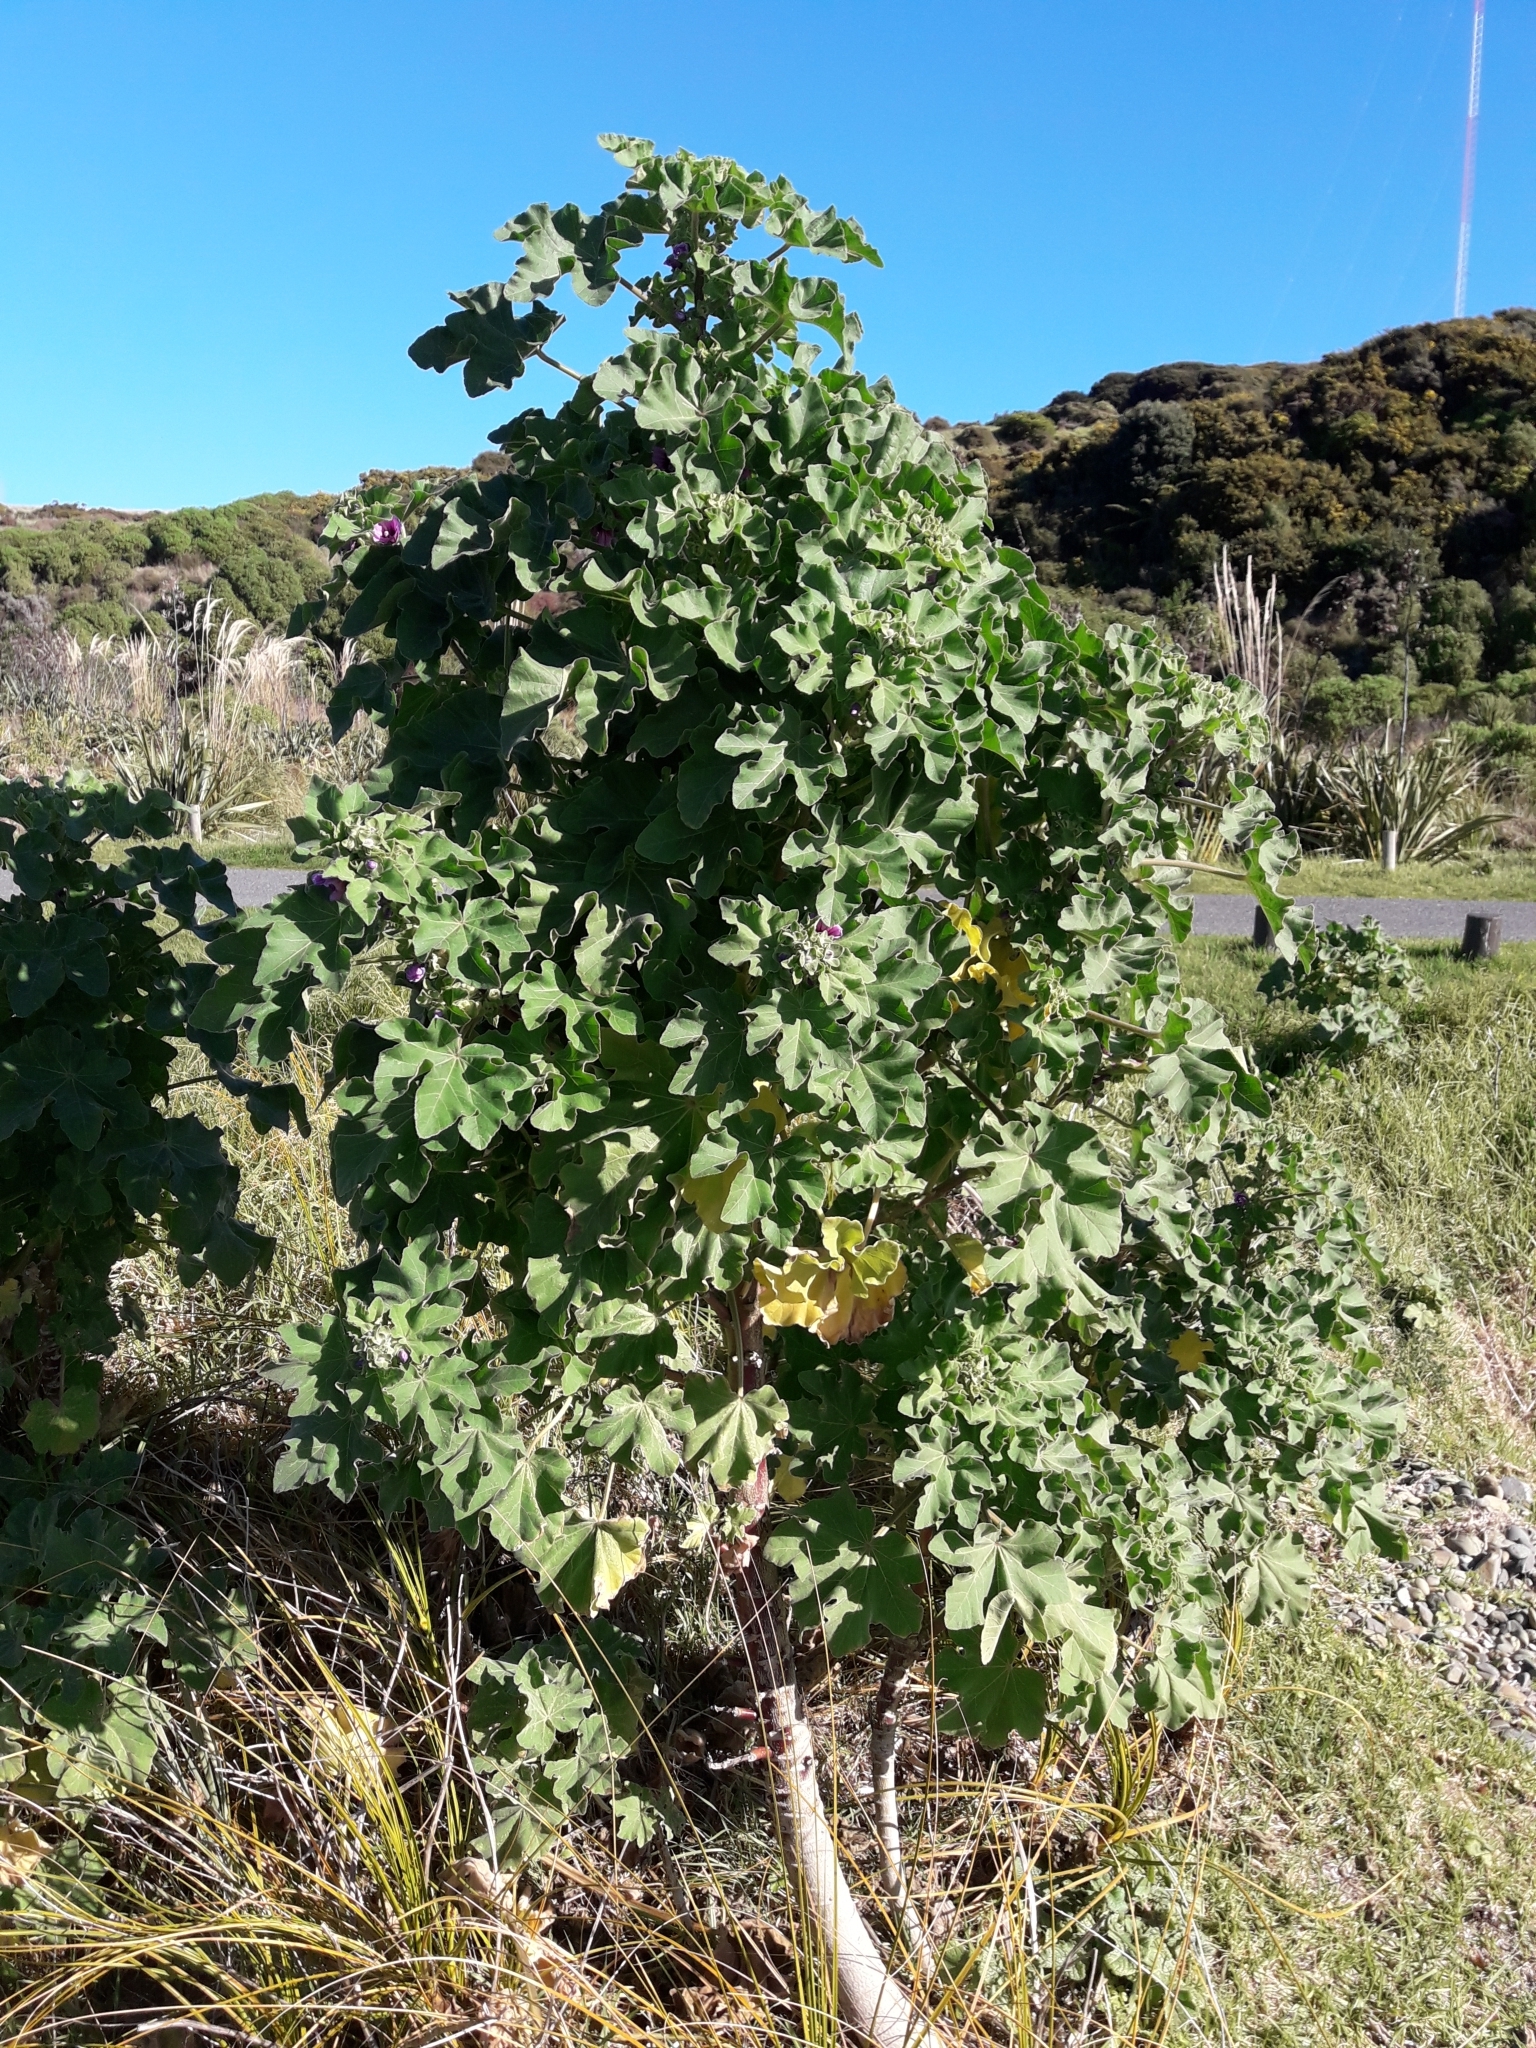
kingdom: Plantae
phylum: Tracheophyta
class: Magnoliopsida
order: Malvales
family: Malvaceae
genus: Malva
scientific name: Malva arborea
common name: Tree mallow
